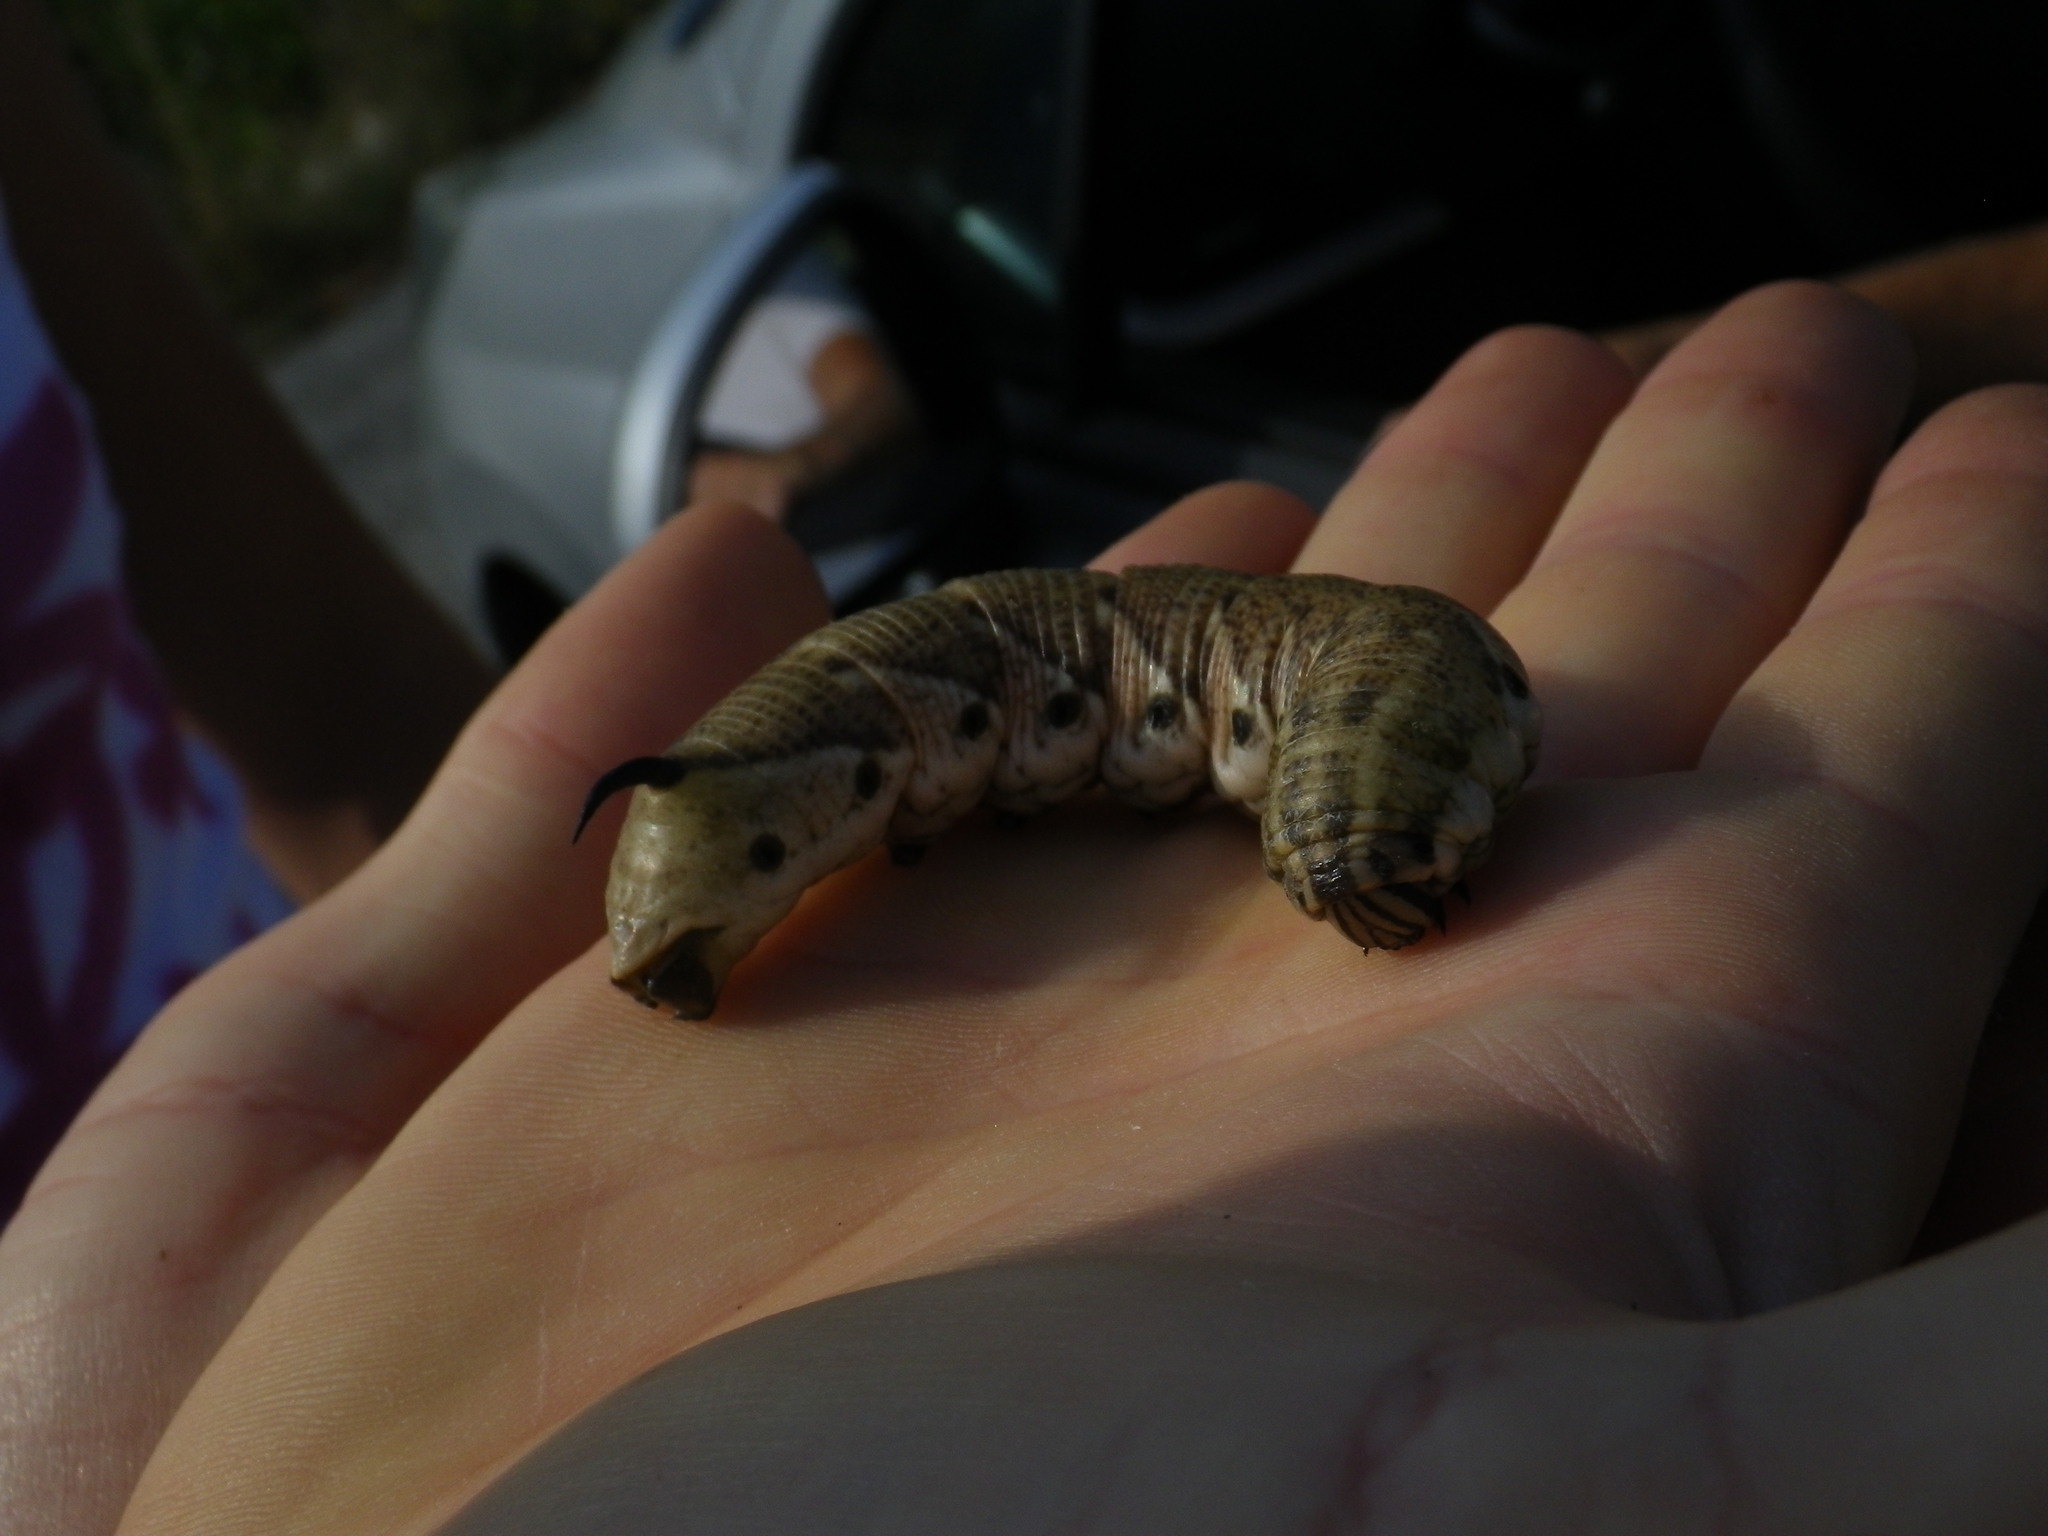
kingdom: Animalia
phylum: Arthropoda
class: Insecta
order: Lepidoptera
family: Sphingidae
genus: Agrius
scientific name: Agrius convolvuli
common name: Convolvulus hawkmoth
